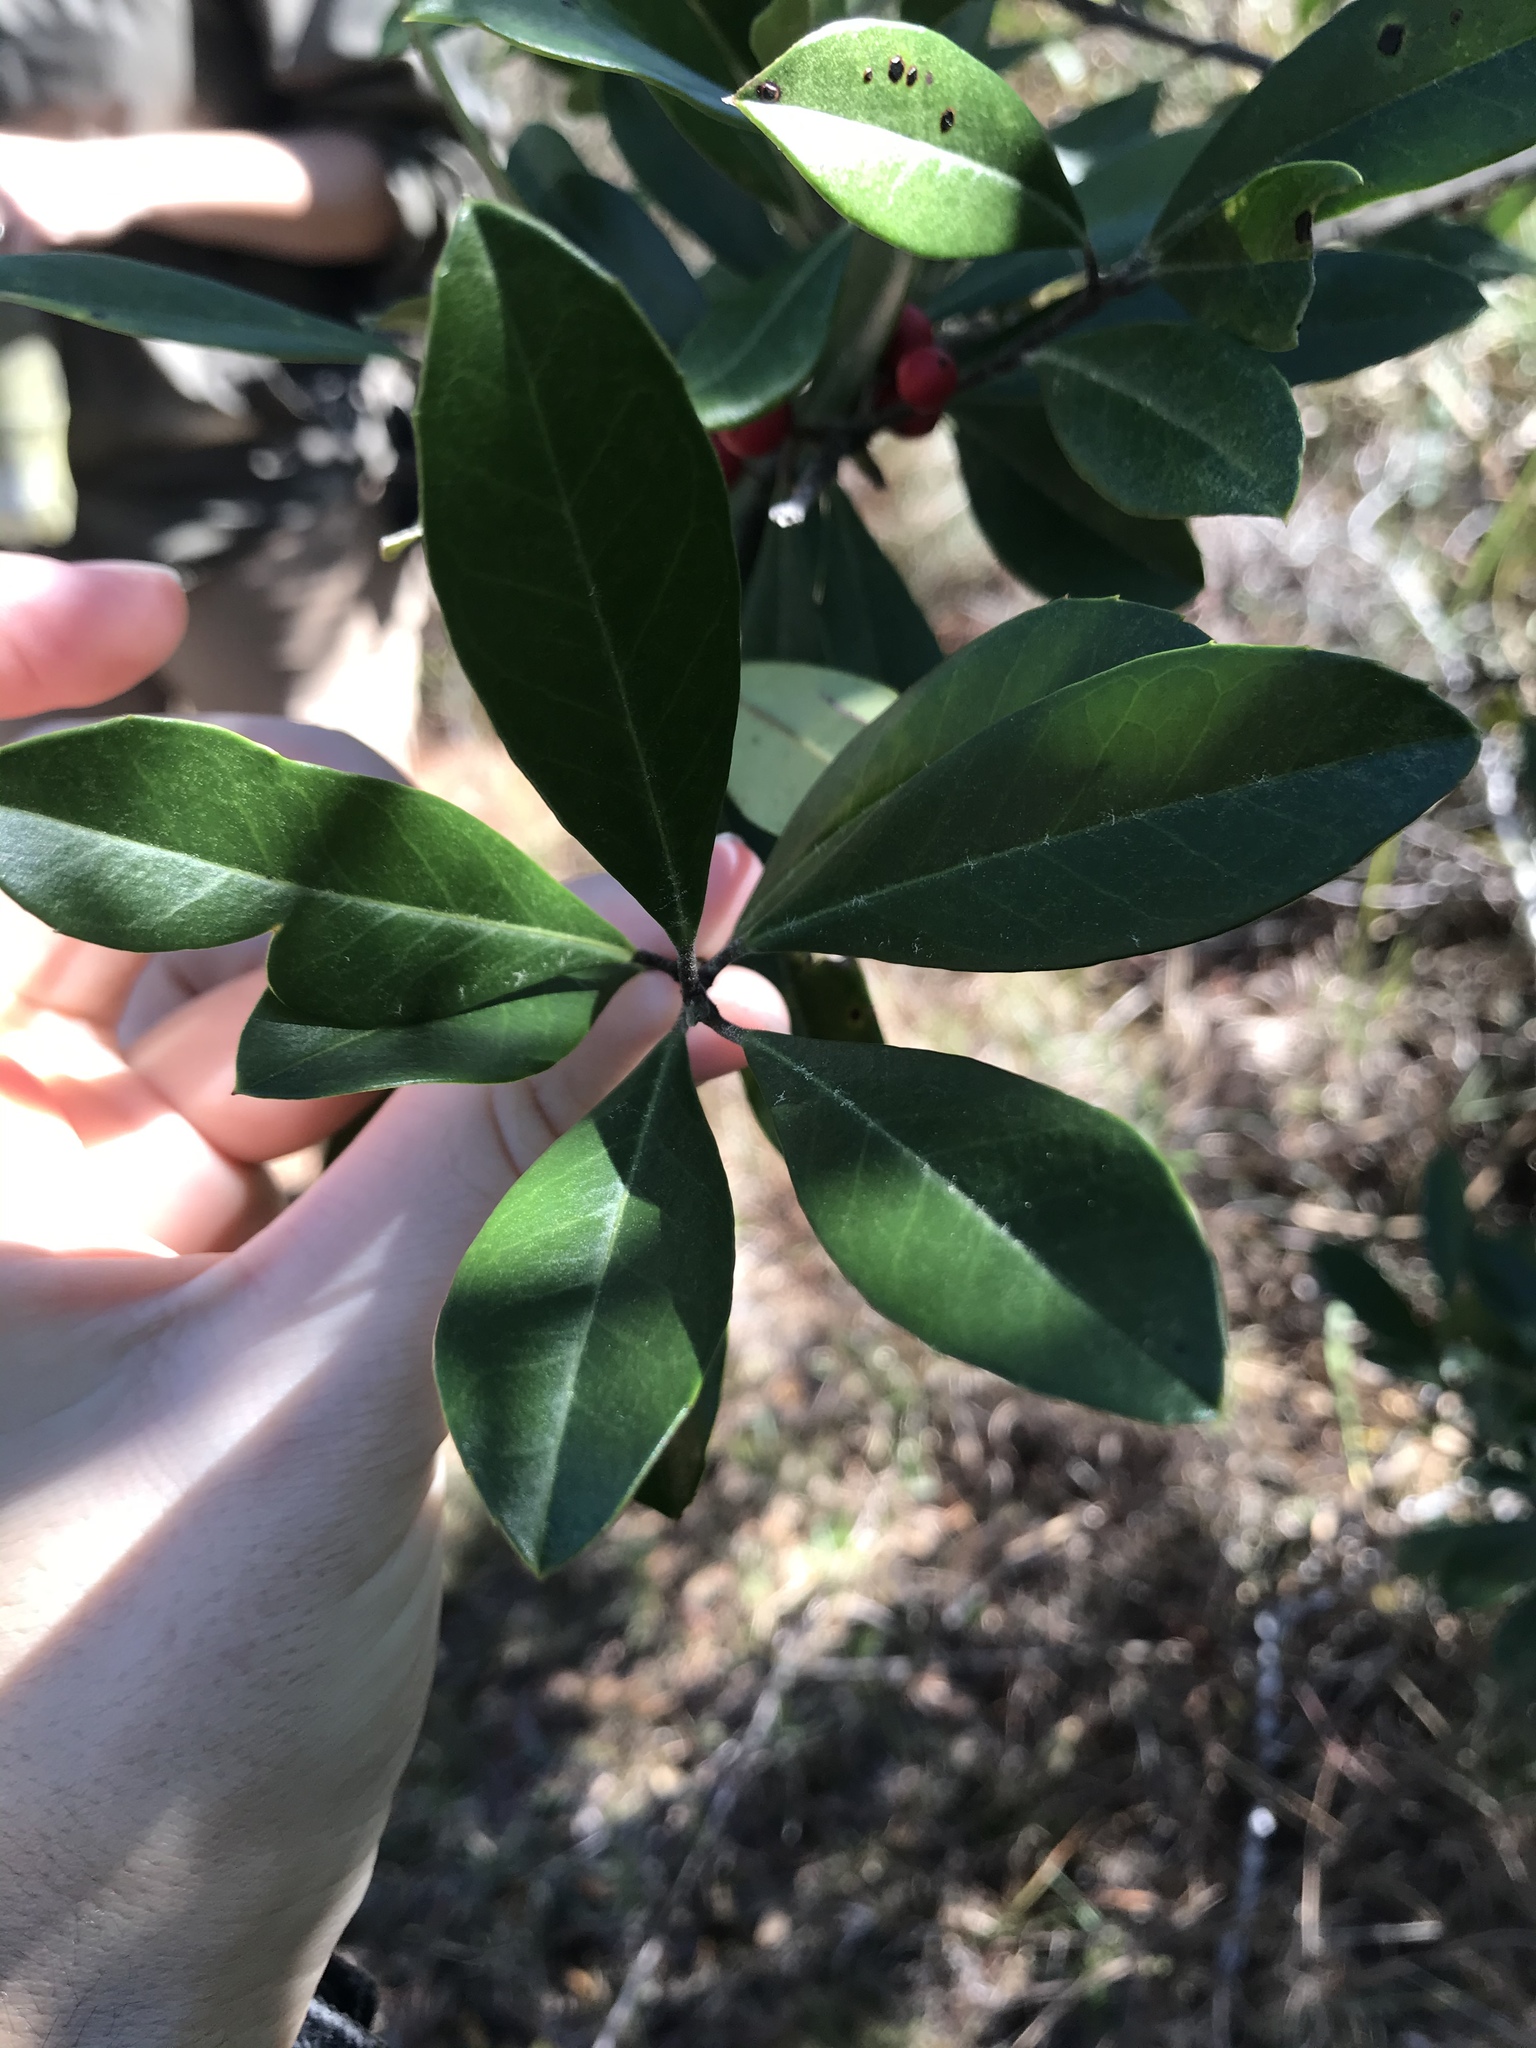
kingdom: Plantae
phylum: Tracheophyta
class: Magnoliopsida
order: Aquifoliales
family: Aquifoliaceae
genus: Ilex
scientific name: Ilex cassine
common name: Dahoon
